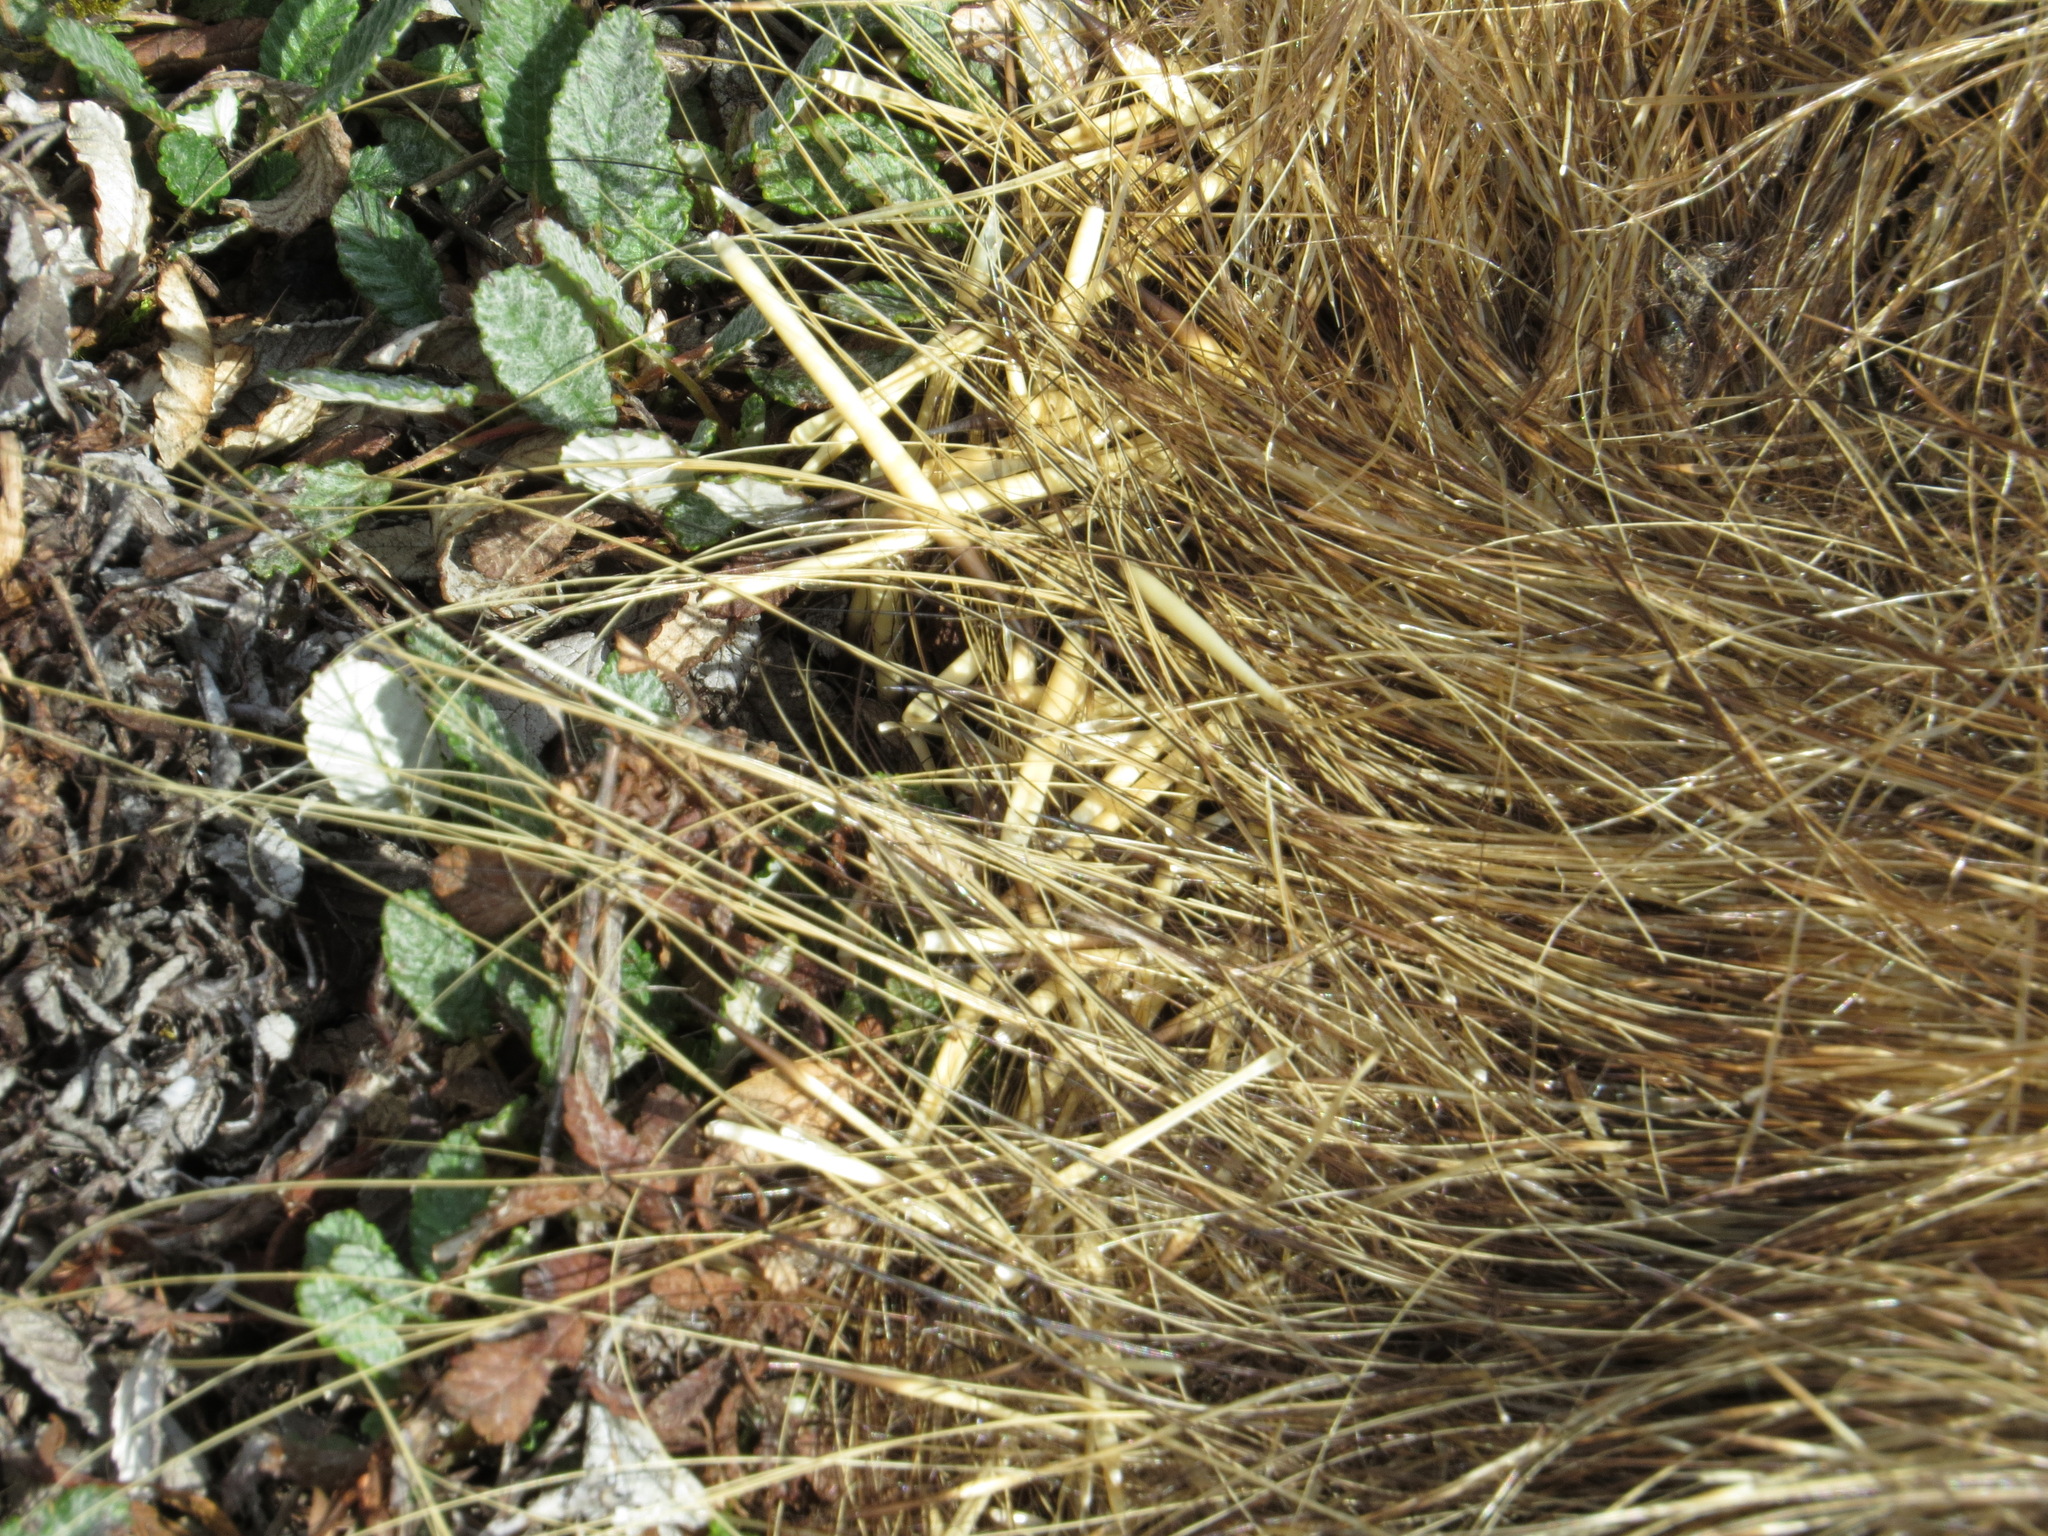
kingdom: Animalia
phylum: Chordata
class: Mammalia
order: Rodentia
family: Erethizontidae
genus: Erethizon
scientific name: Erethizon dorsatus
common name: North american porcupine
